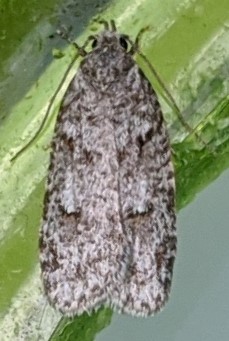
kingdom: Animalia
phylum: Arthropoda
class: Insecta
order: Lepidoptera
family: Depressariidae
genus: Bibarrambla
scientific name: Bibarrambla allenella
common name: Bog bibarrambla moth
